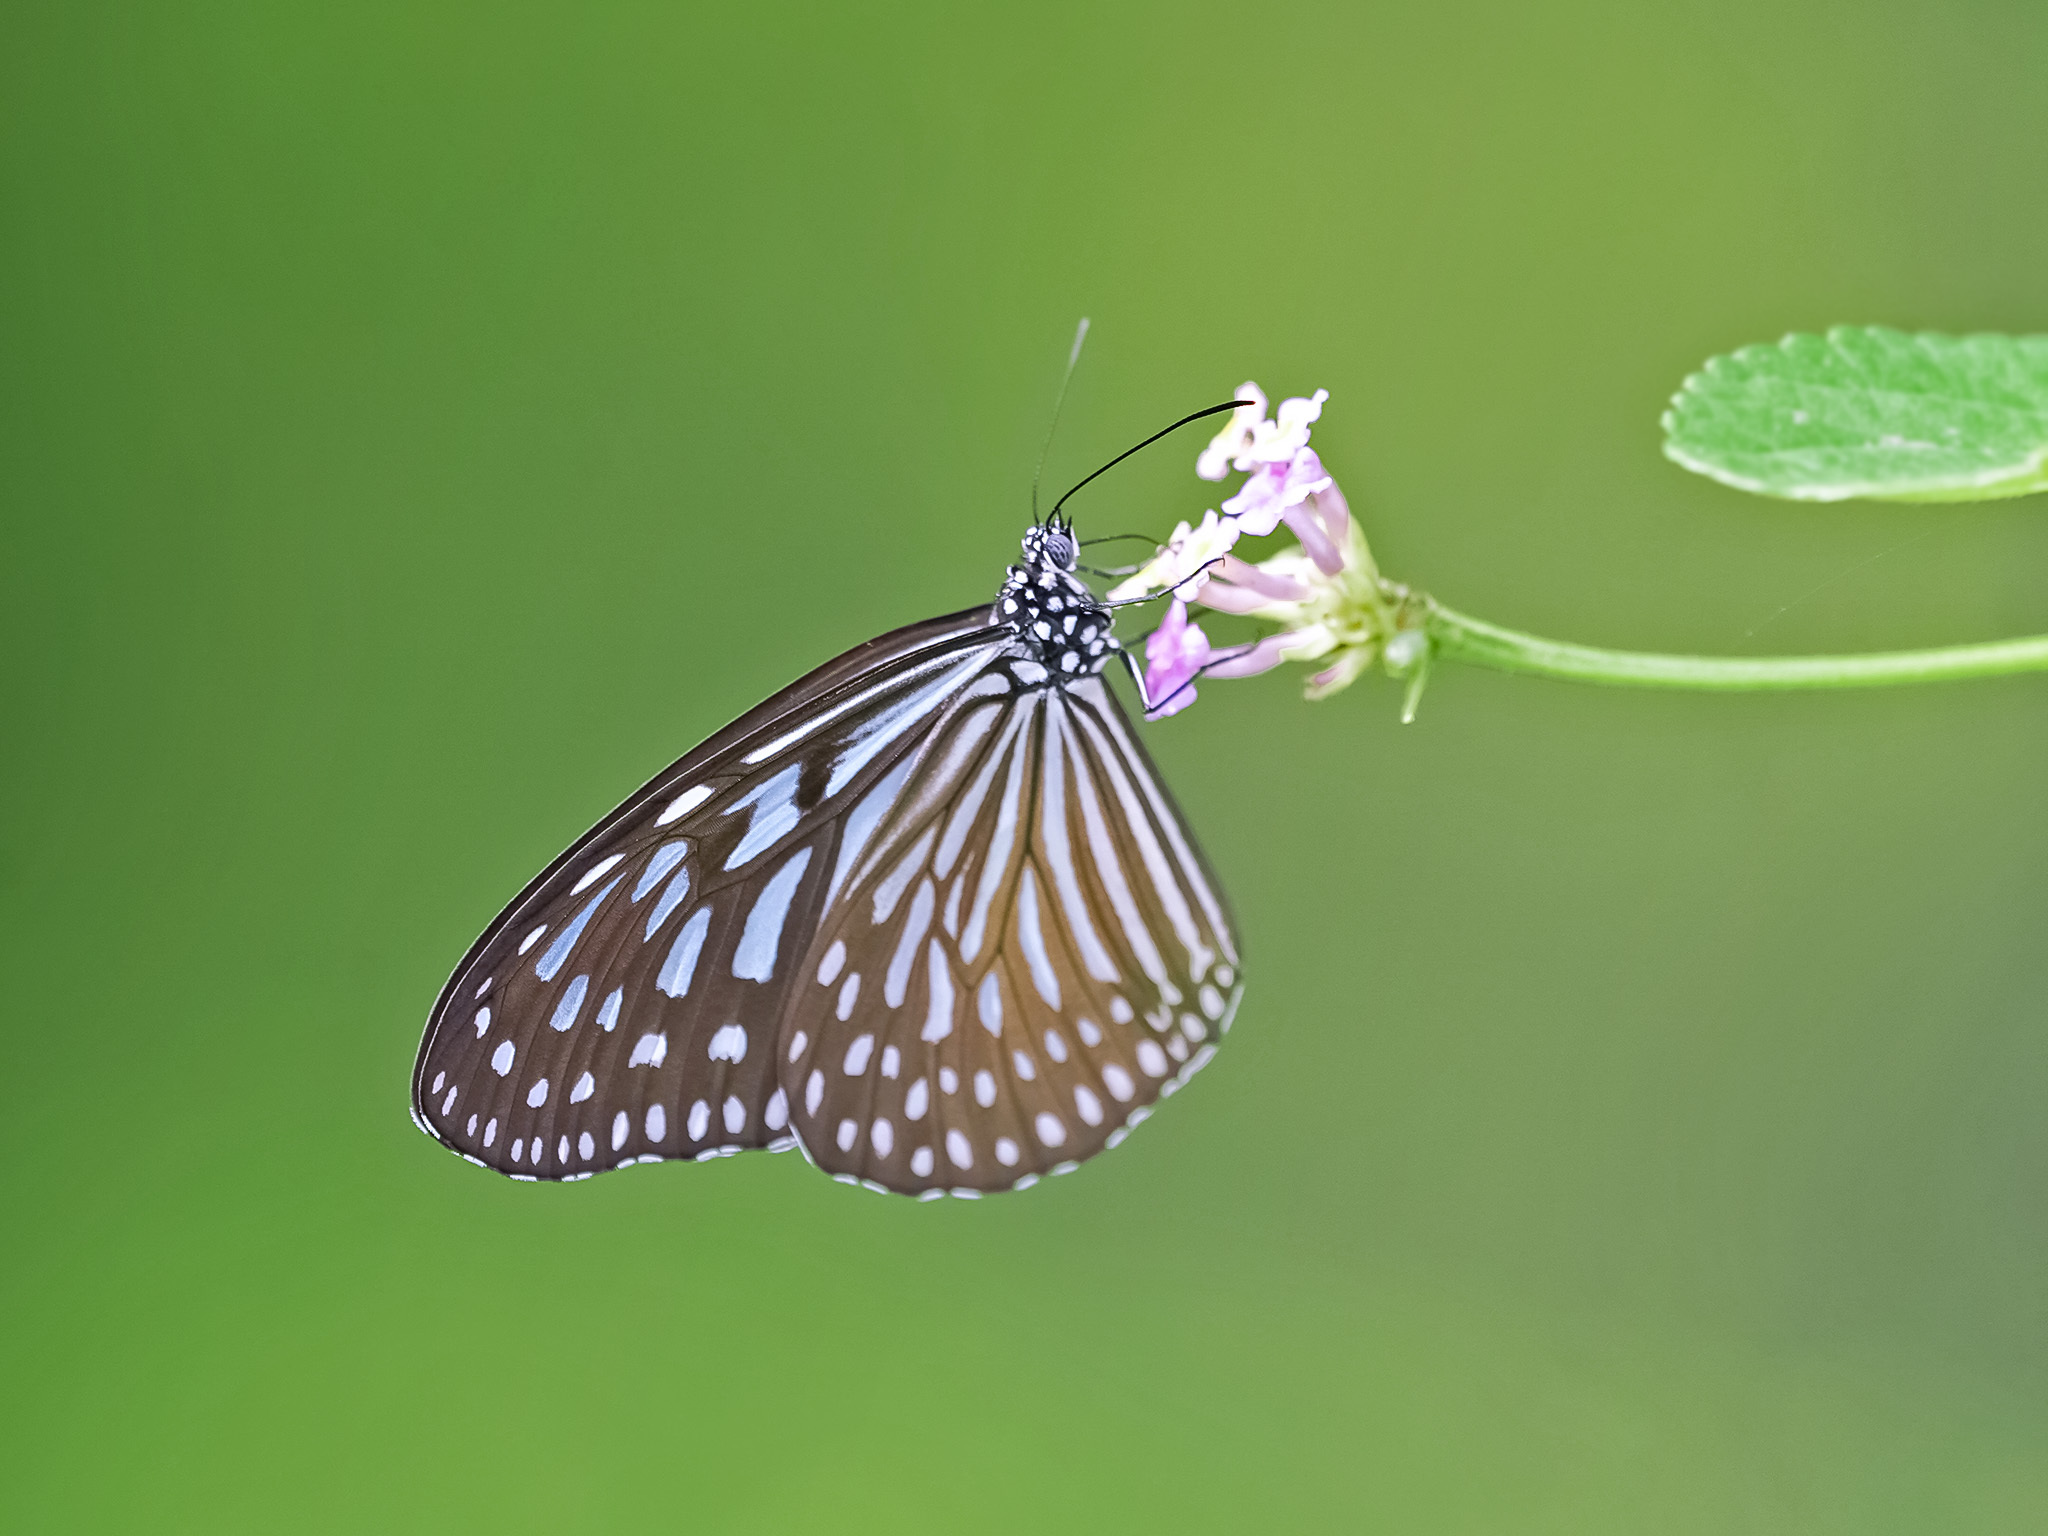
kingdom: Animalia
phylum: Arthropoda
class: Insecta
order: Lepidoptera
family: Nymphalidae
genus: Ideopsis
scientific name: Ideopsis vulgaris
